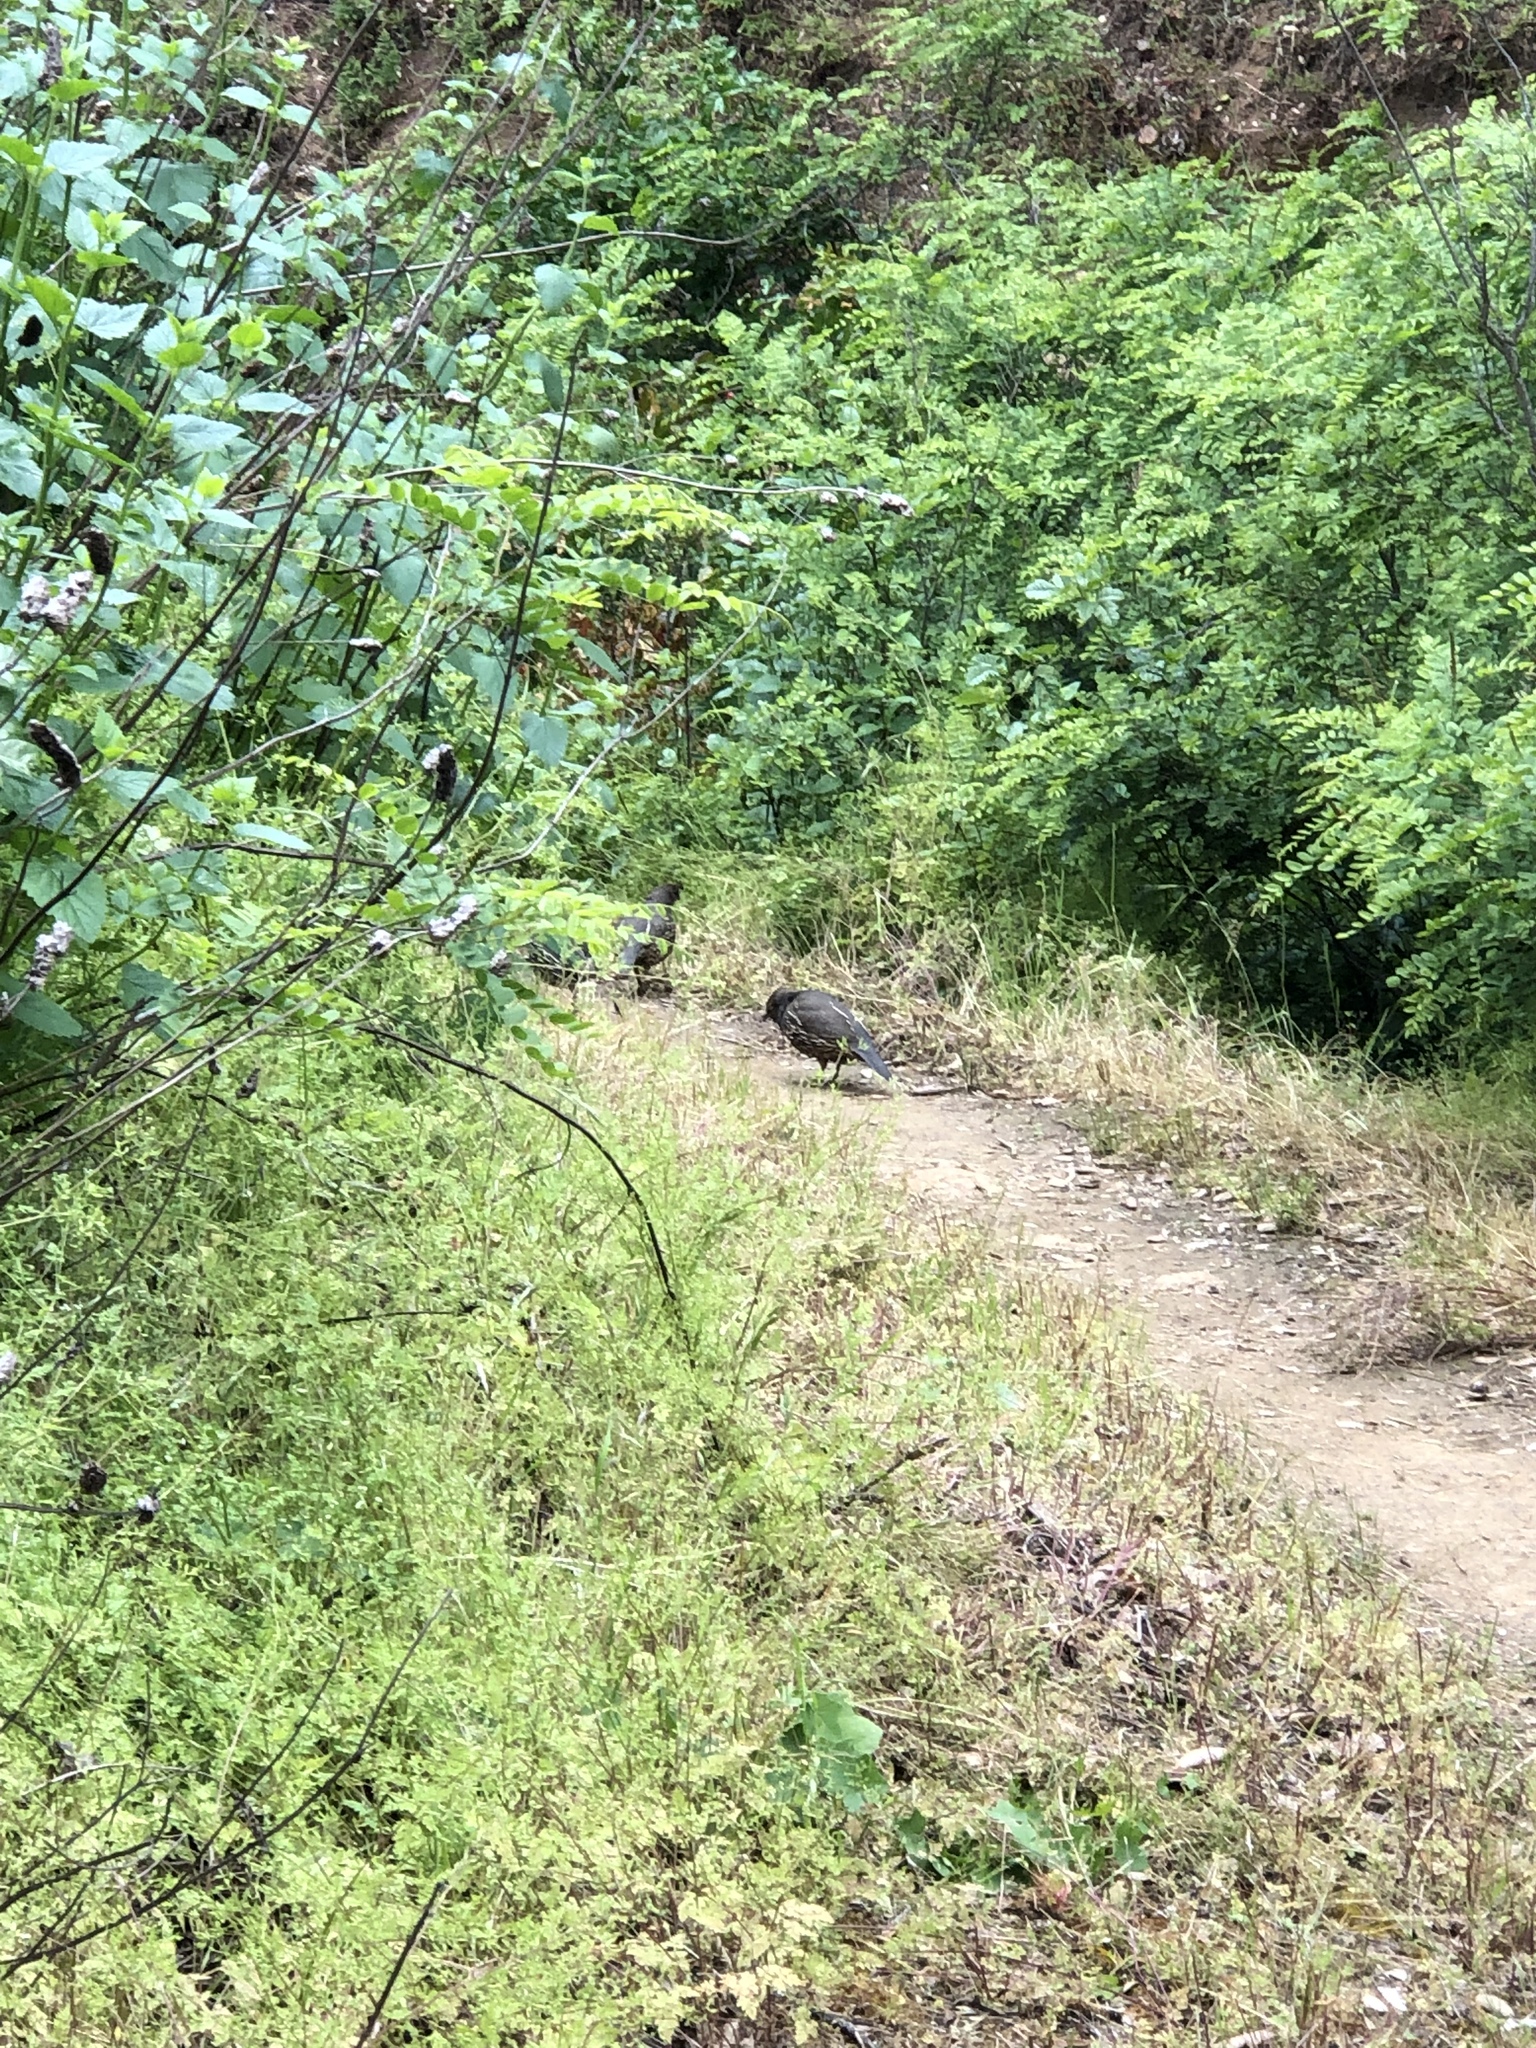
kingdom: Animalia
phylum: Chordata
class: Aves
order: Galliformes
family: Odontophoridae
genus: Callipepla
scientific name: Callipepla californica
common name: California quail
